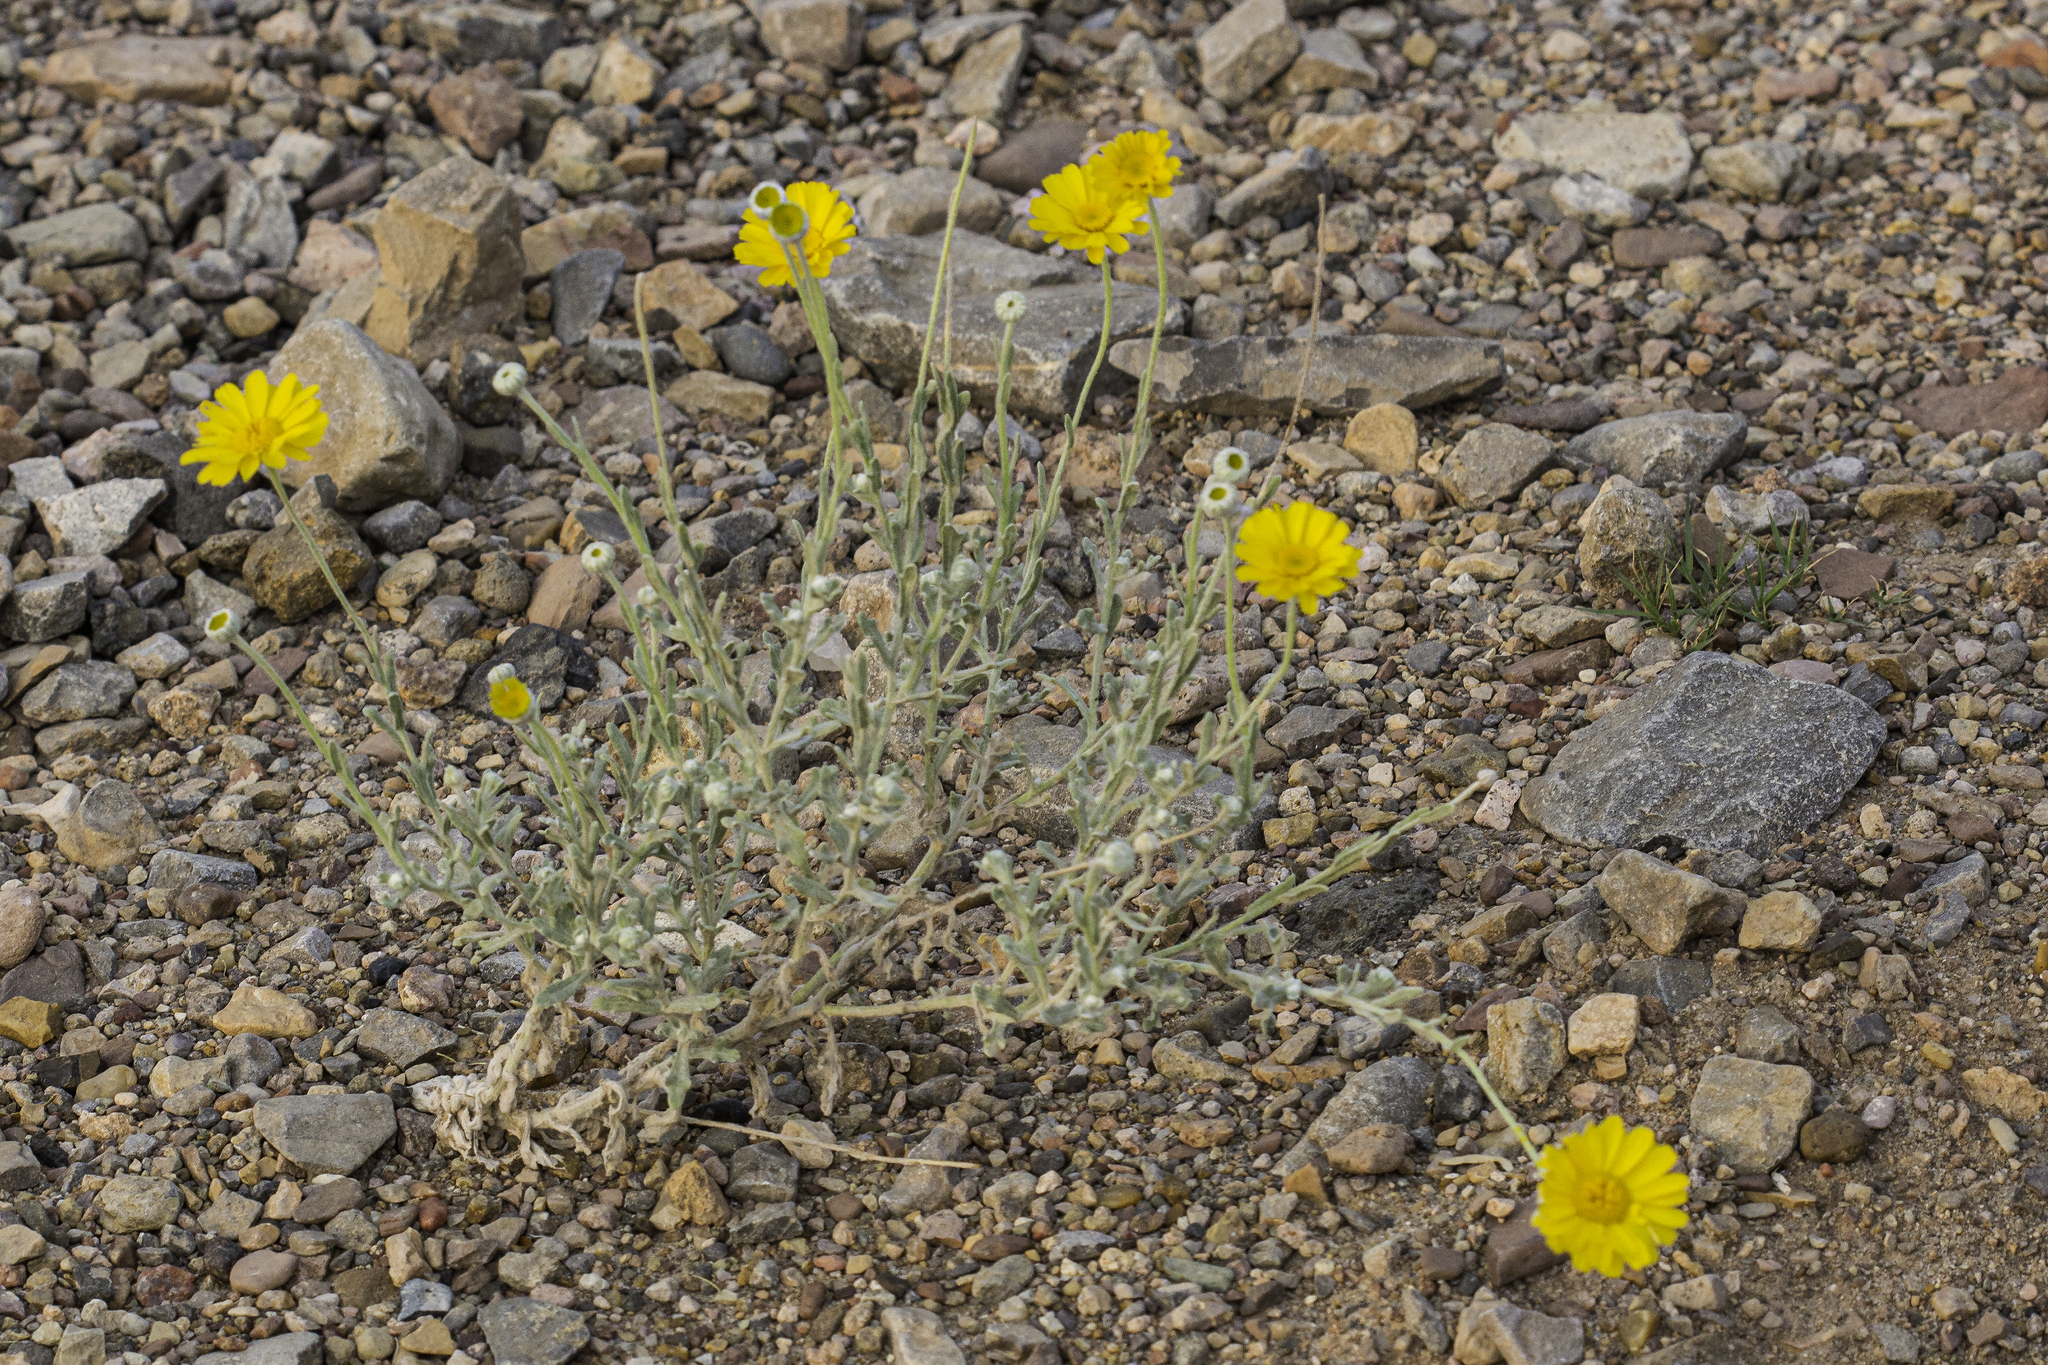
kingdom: Plantae
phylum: Tracheophyta
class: Magnoliopsida
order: Asterales
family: Asteraceae
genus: Baileya
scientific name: Baileya multiradiata
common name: Desert-marigold
